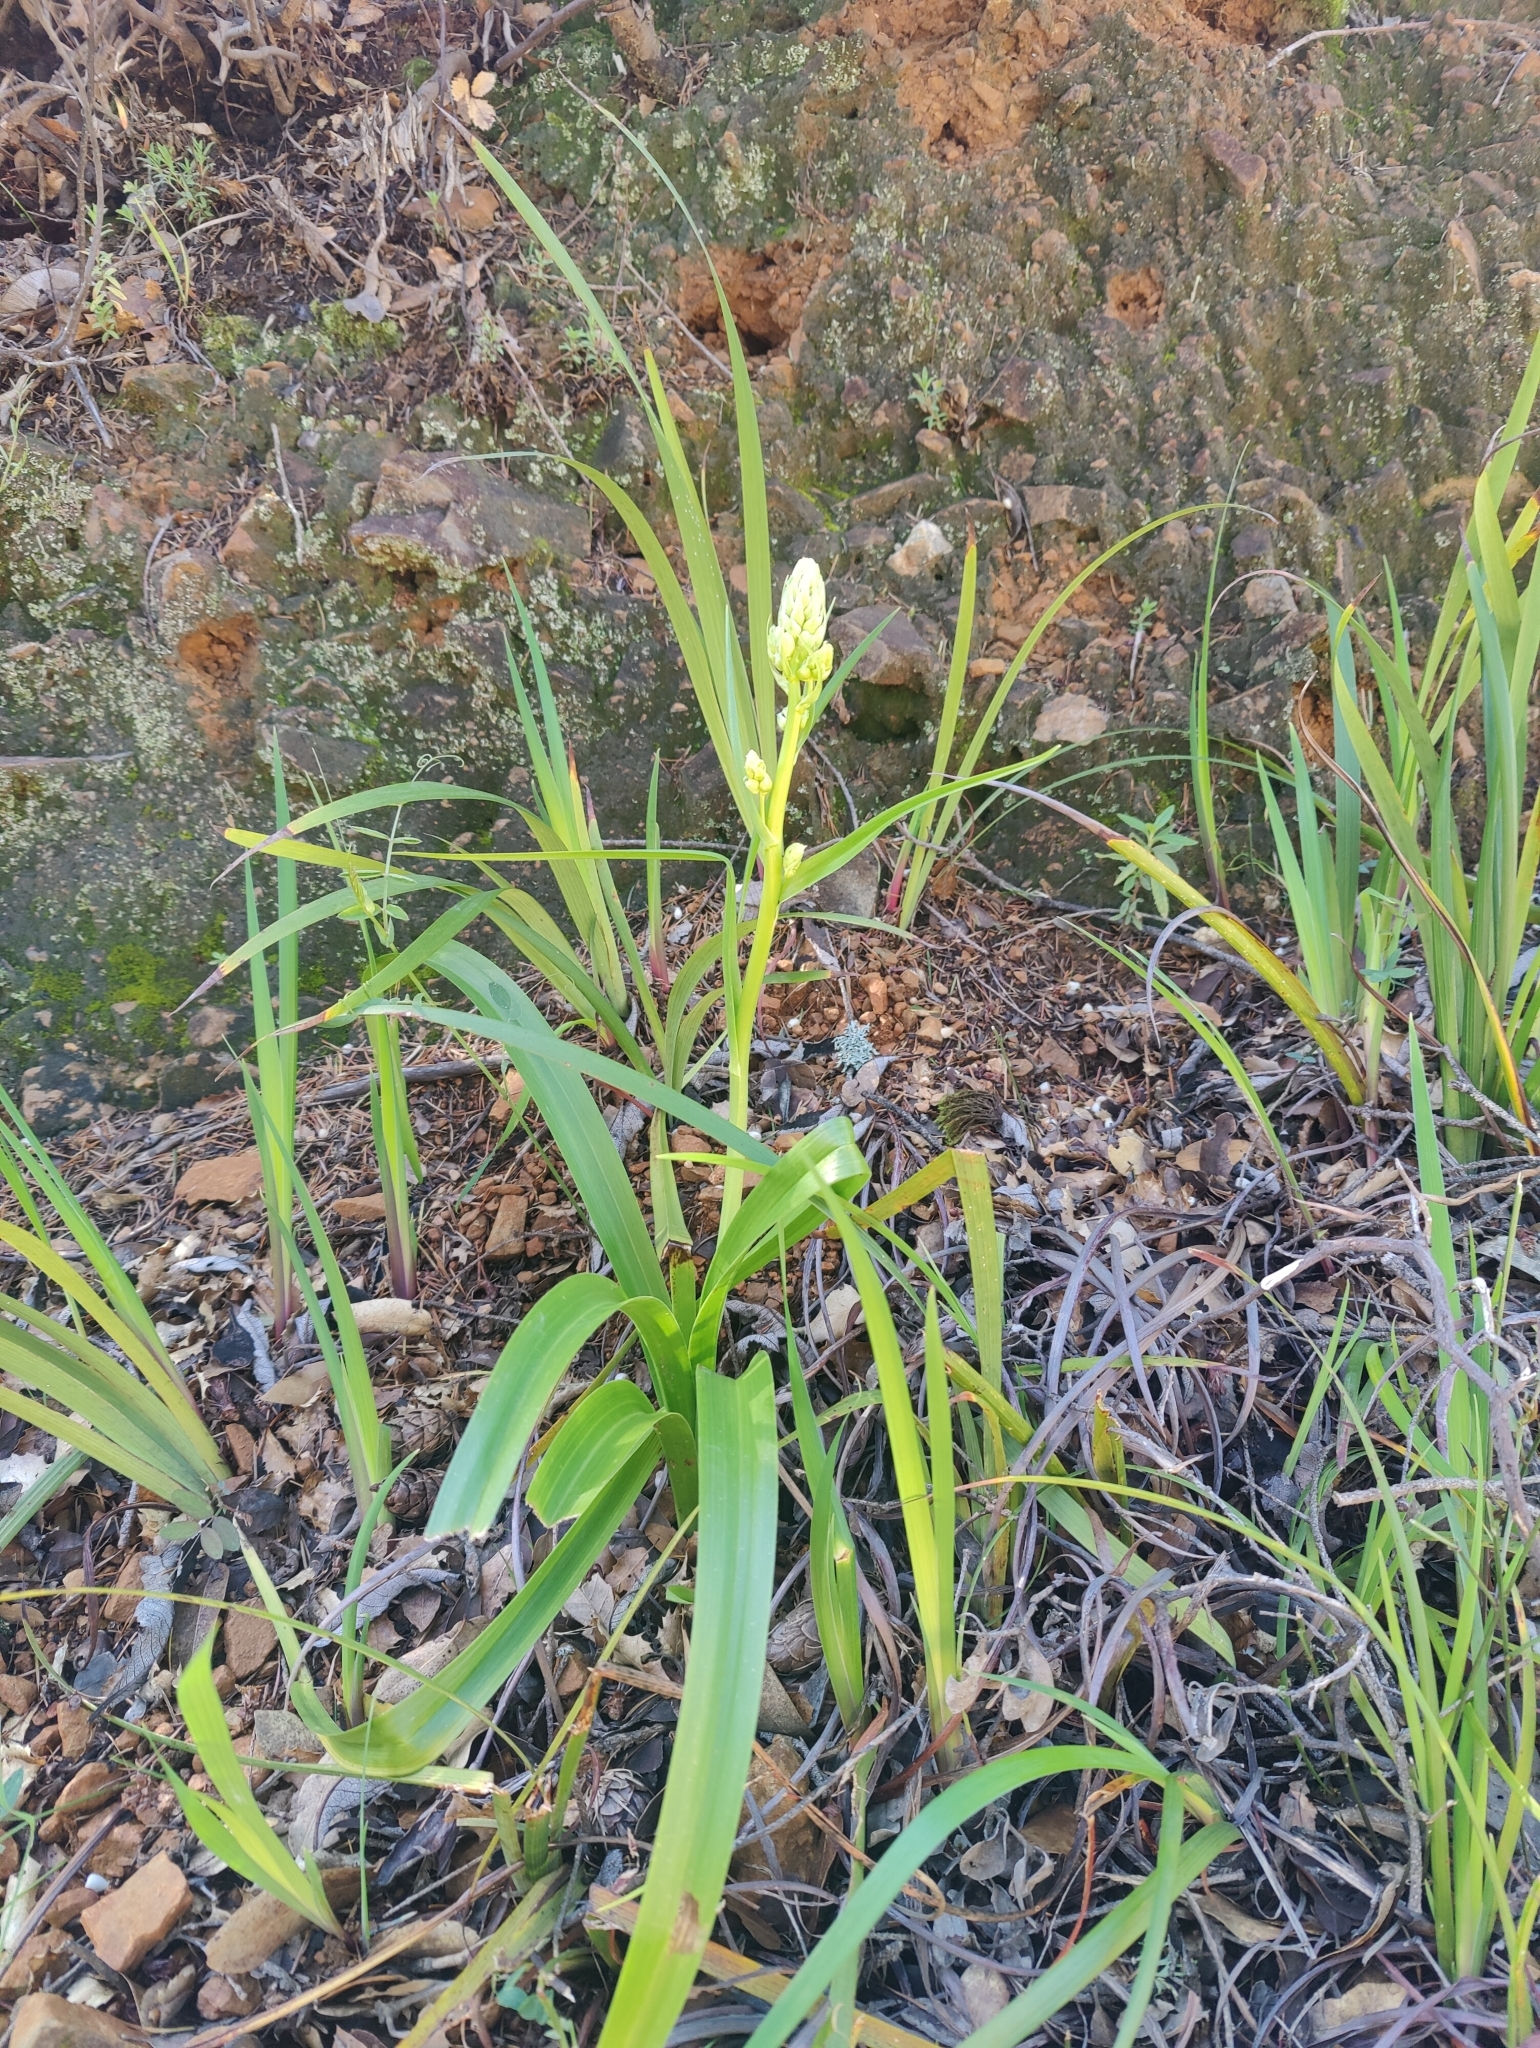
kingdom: Plantae
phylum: Tracheophyta
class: Liliopsida
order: Liliales
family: Melanthiaceae
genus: Toxicoscordion
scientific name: Toxicoscordion fremontii
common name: Fremont's death camas
